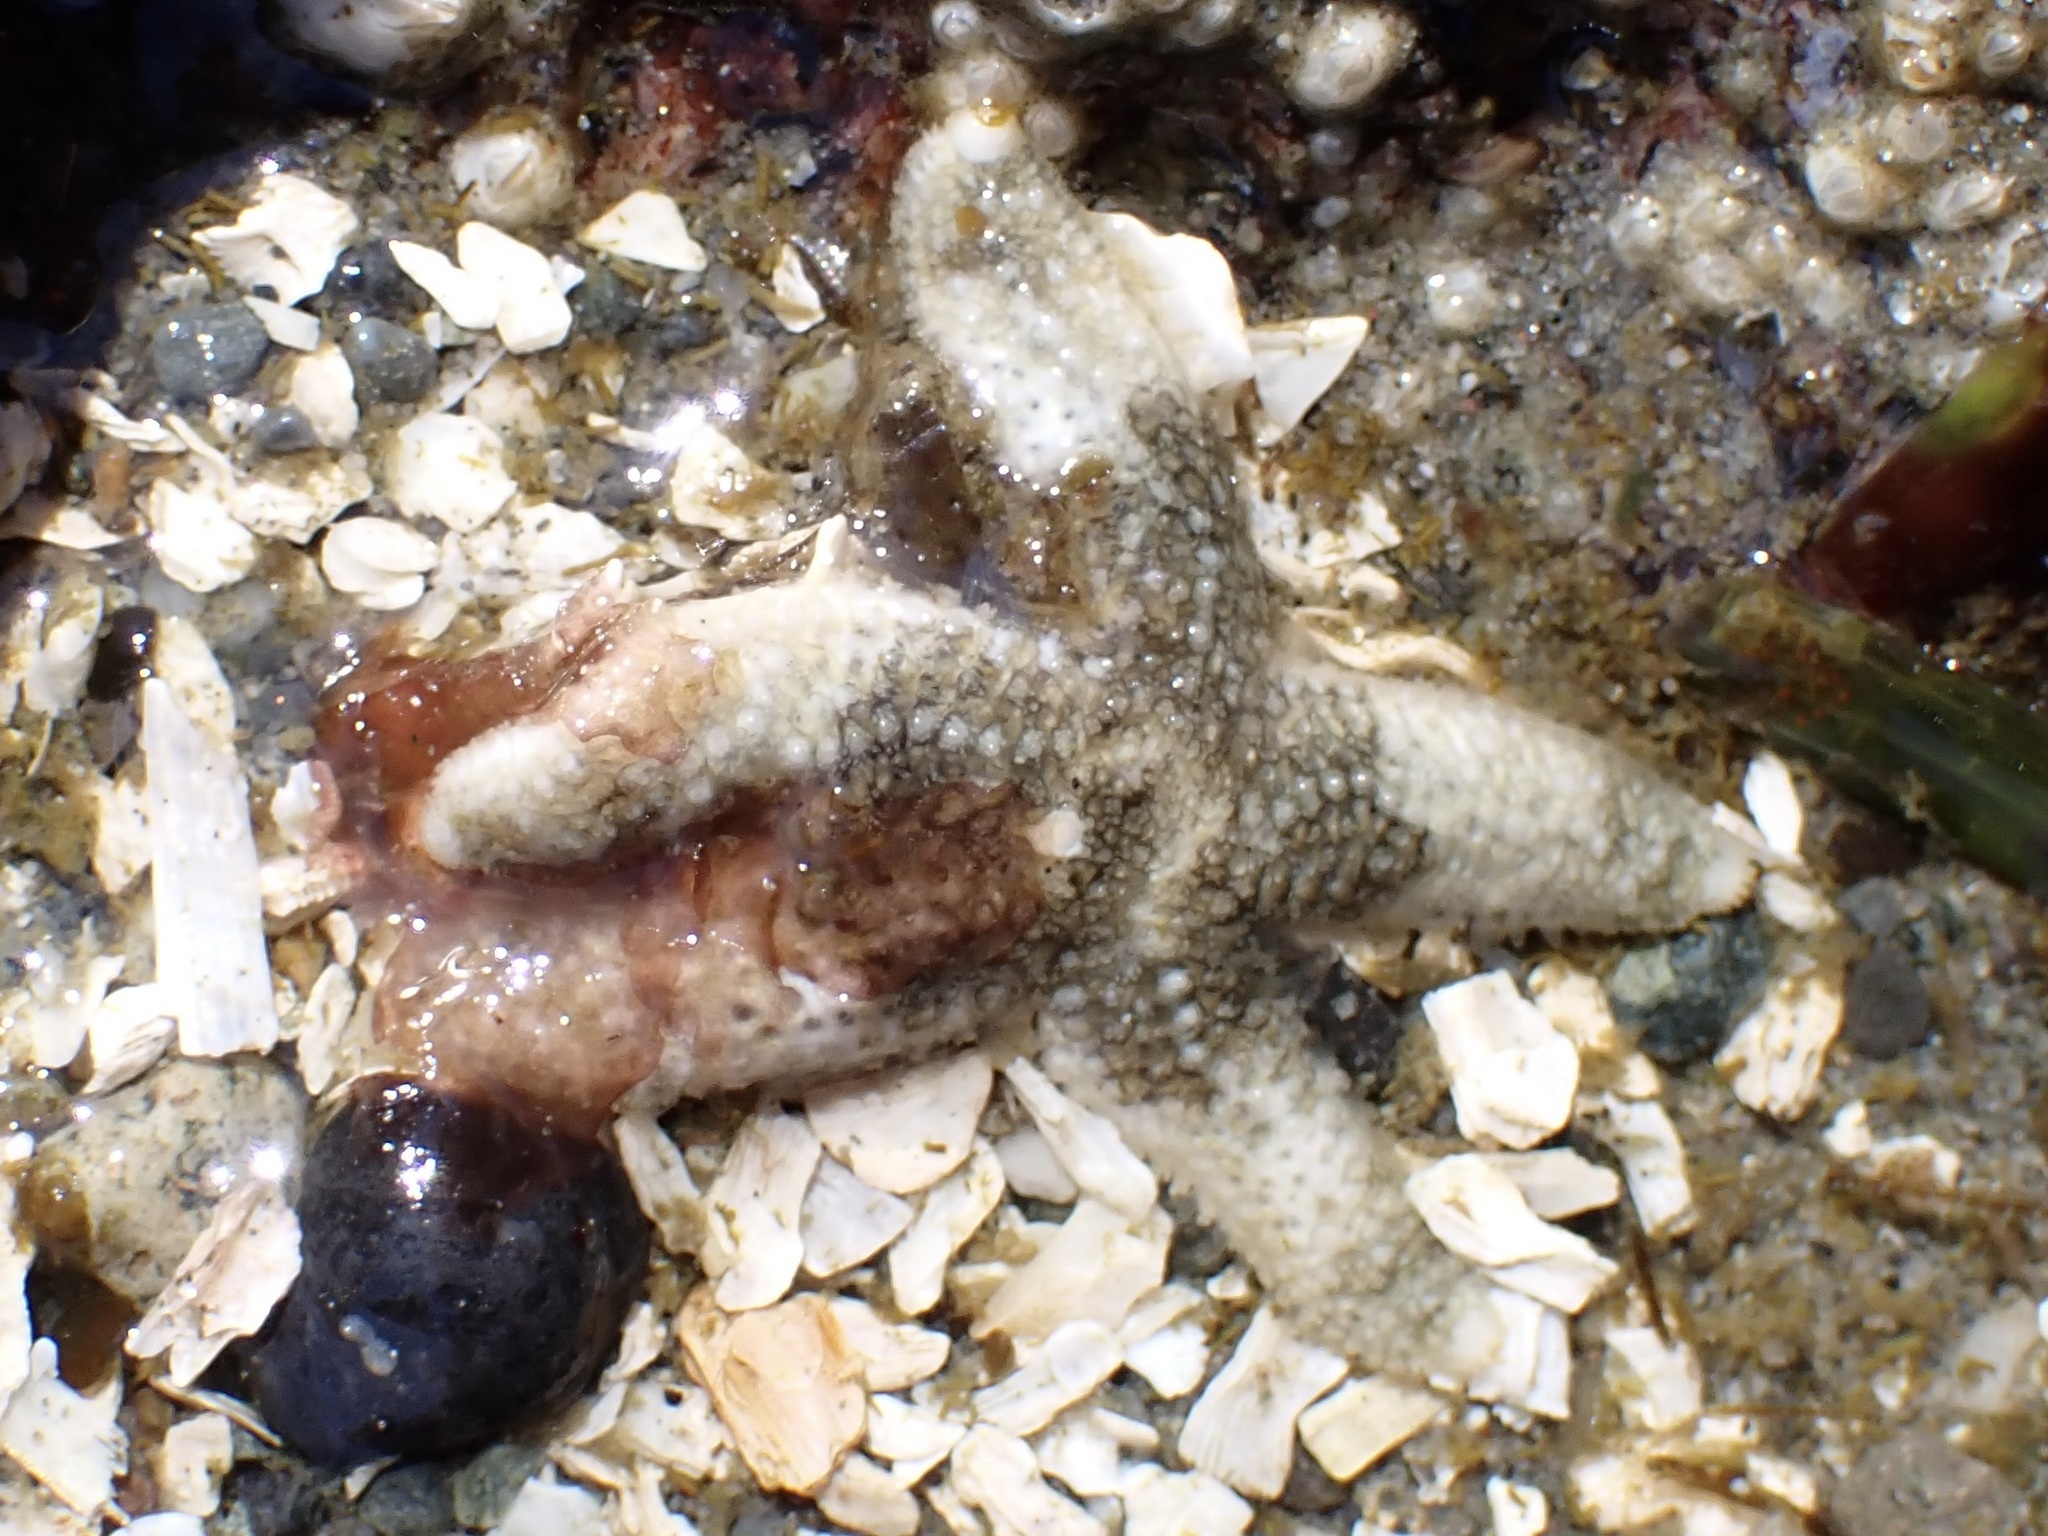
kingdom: Animalia
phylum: Echinodermata
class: Asteroidea
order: Forcipulatida
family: Asteriidae
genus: Evasterias
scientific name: Evasterias troschelii
